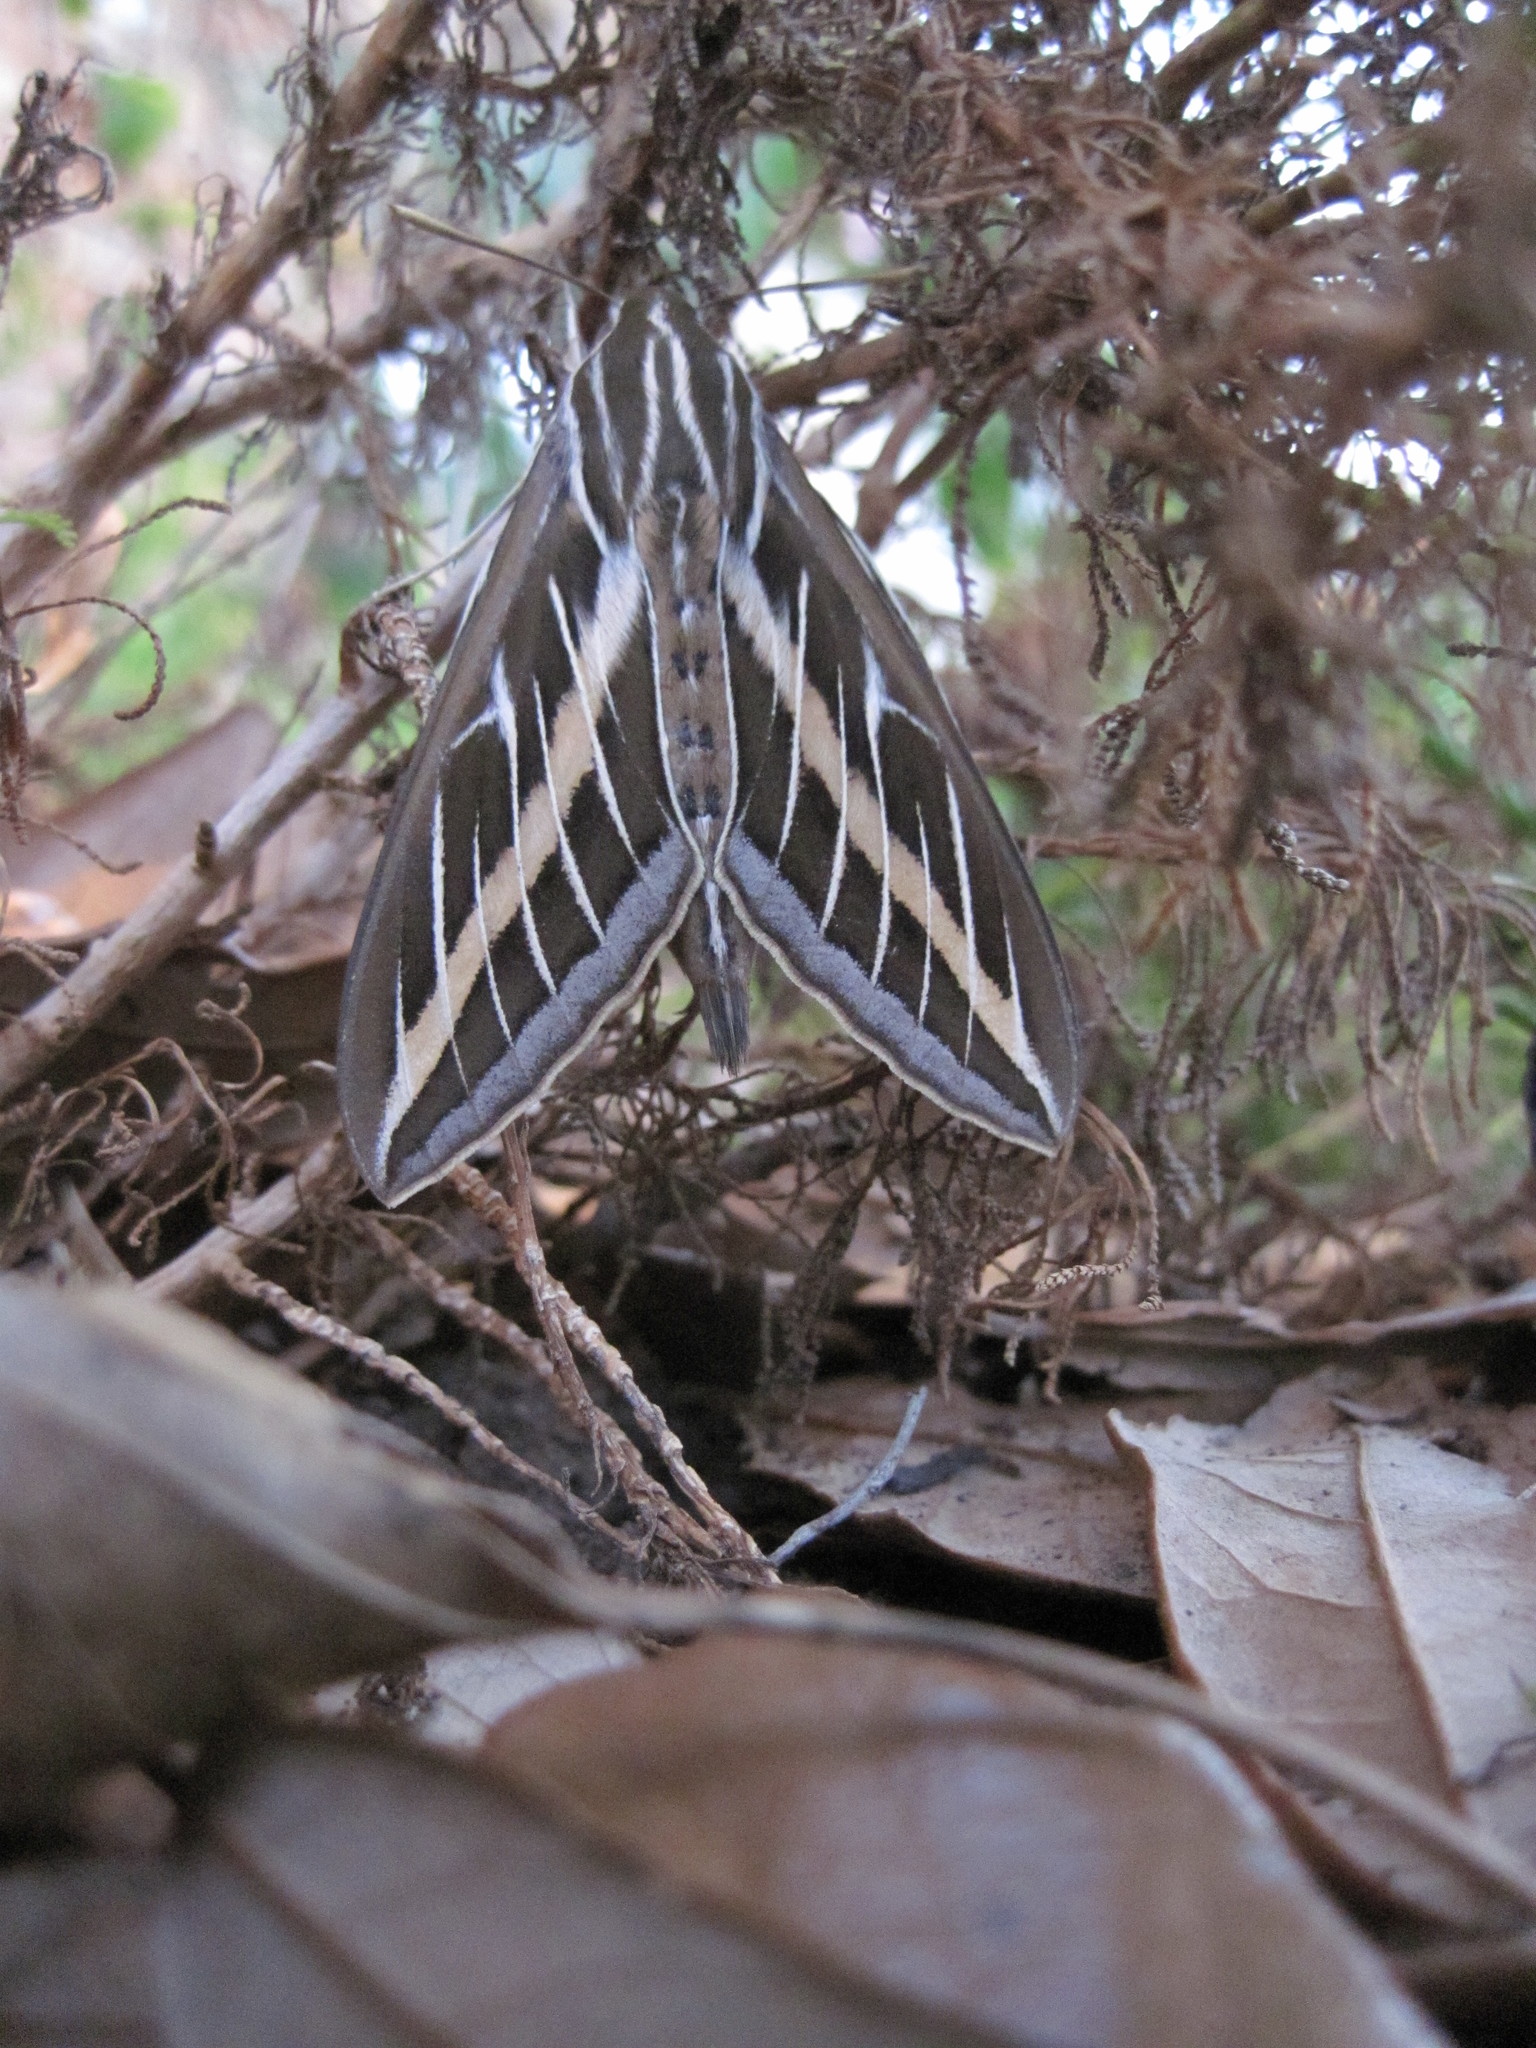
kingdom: Animalia
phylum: Arthropoda
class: Insecta
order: Lepidoptera
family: Sphingidae
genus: Hyles
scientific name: Hyles lineata
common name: White-lined sphinx
